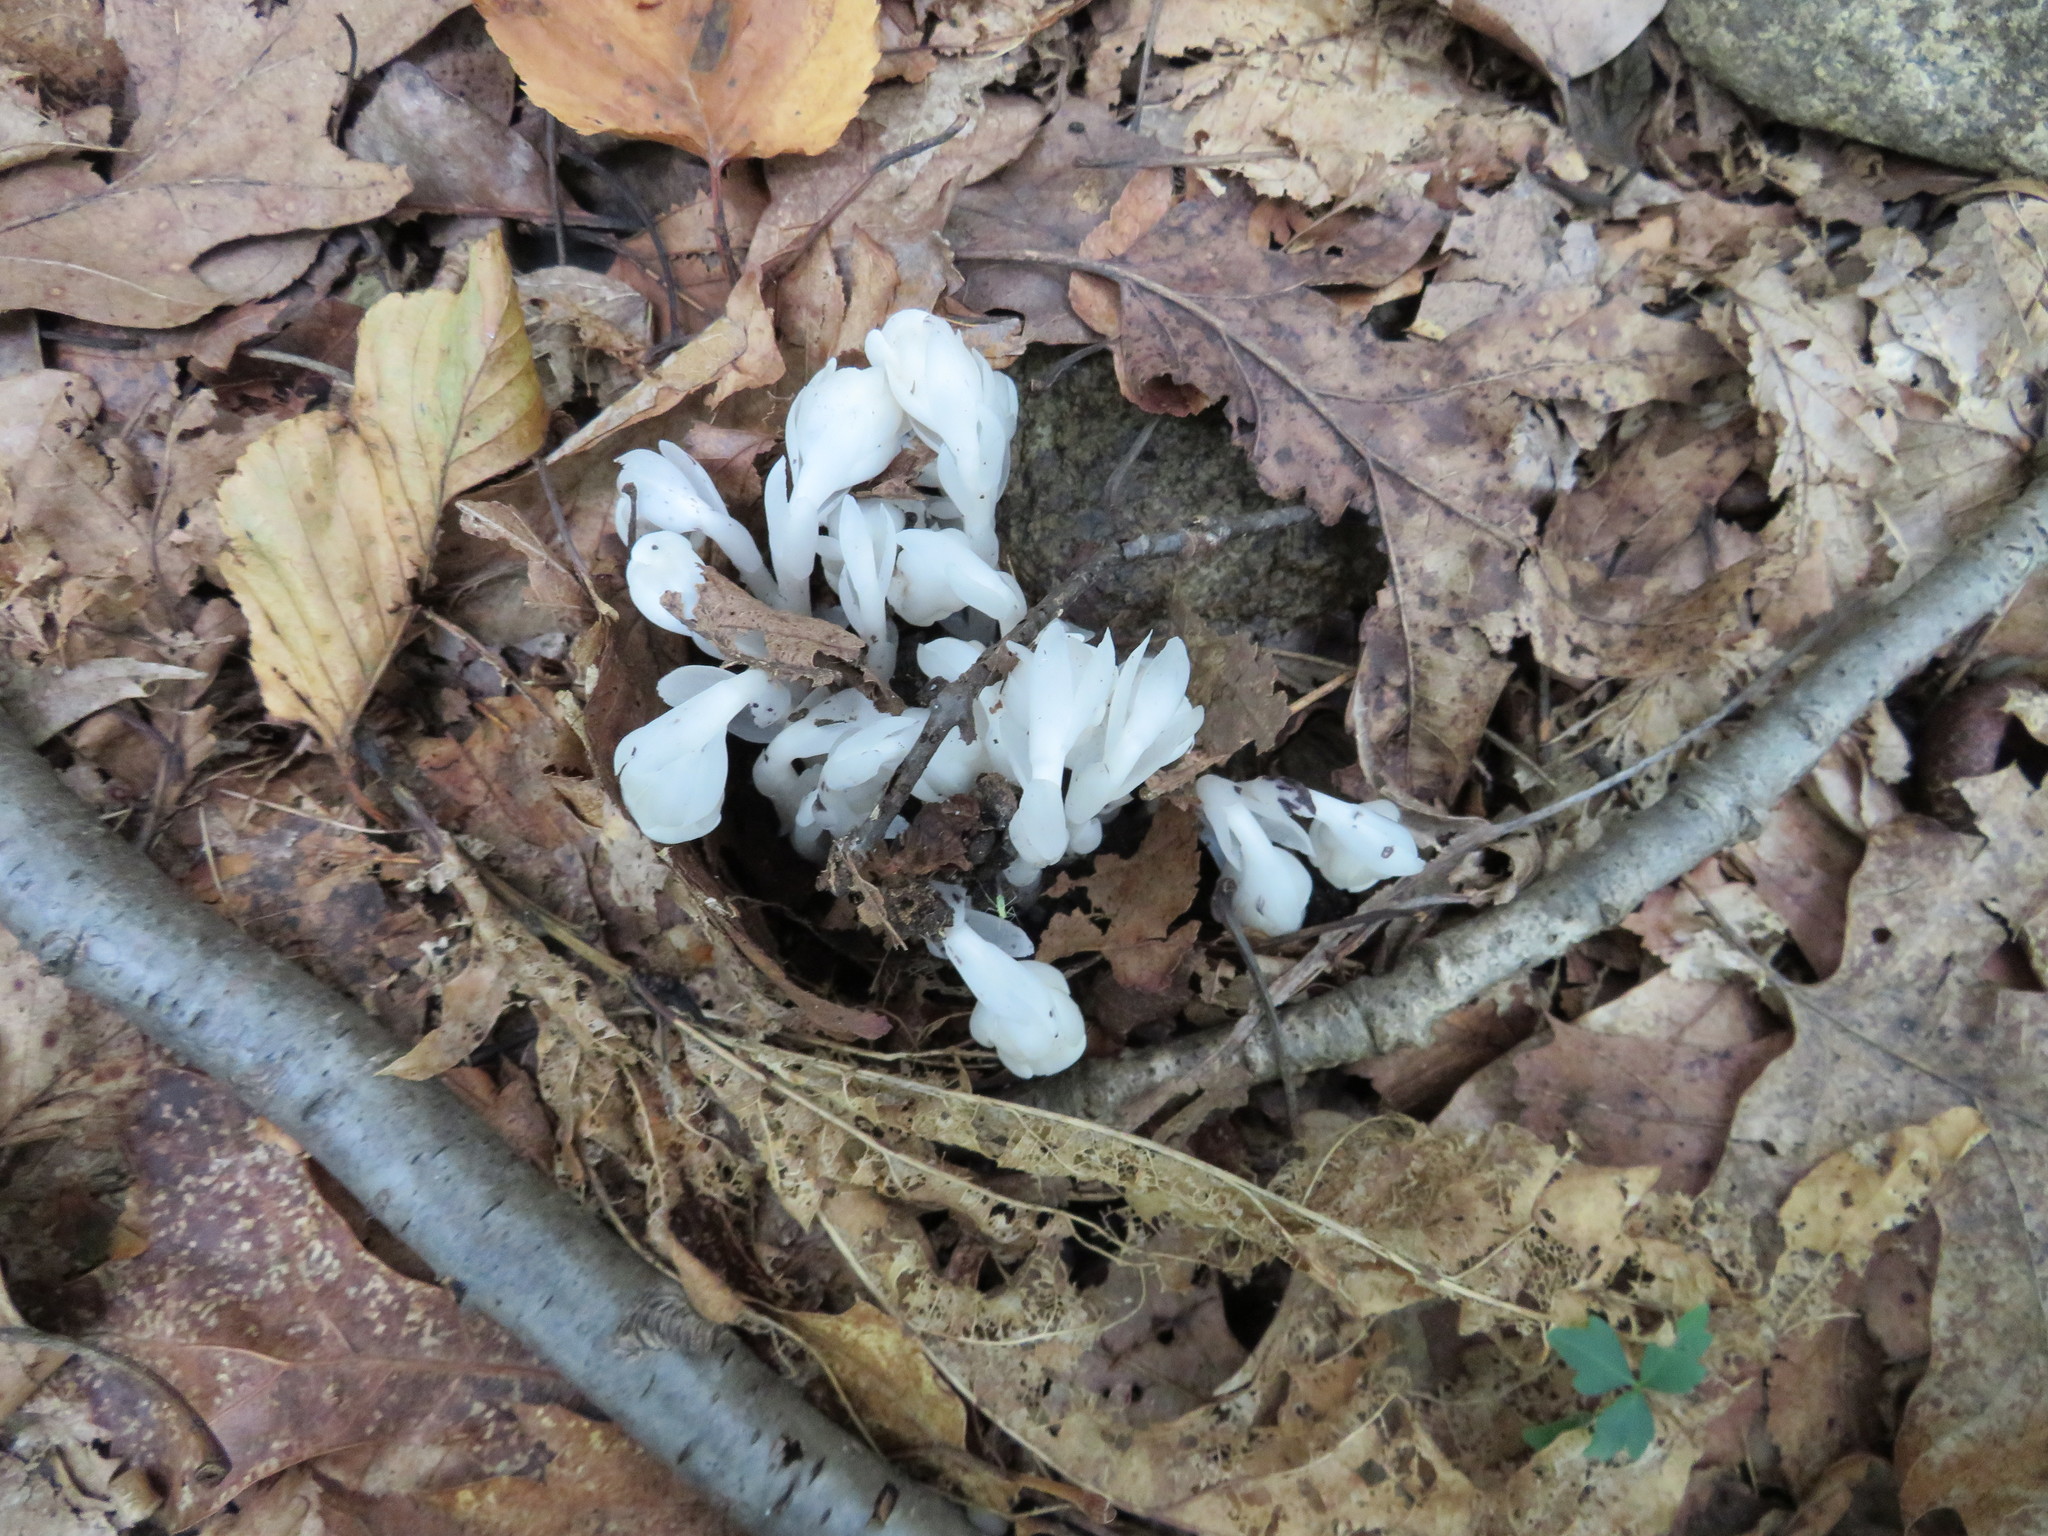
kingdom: Plantae
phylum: Tracheophyta
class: Magnoliopsida
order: Ericales
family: Ericaceae
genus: Monotropa
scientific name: Monotropa uniflora
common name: Convulsion root
